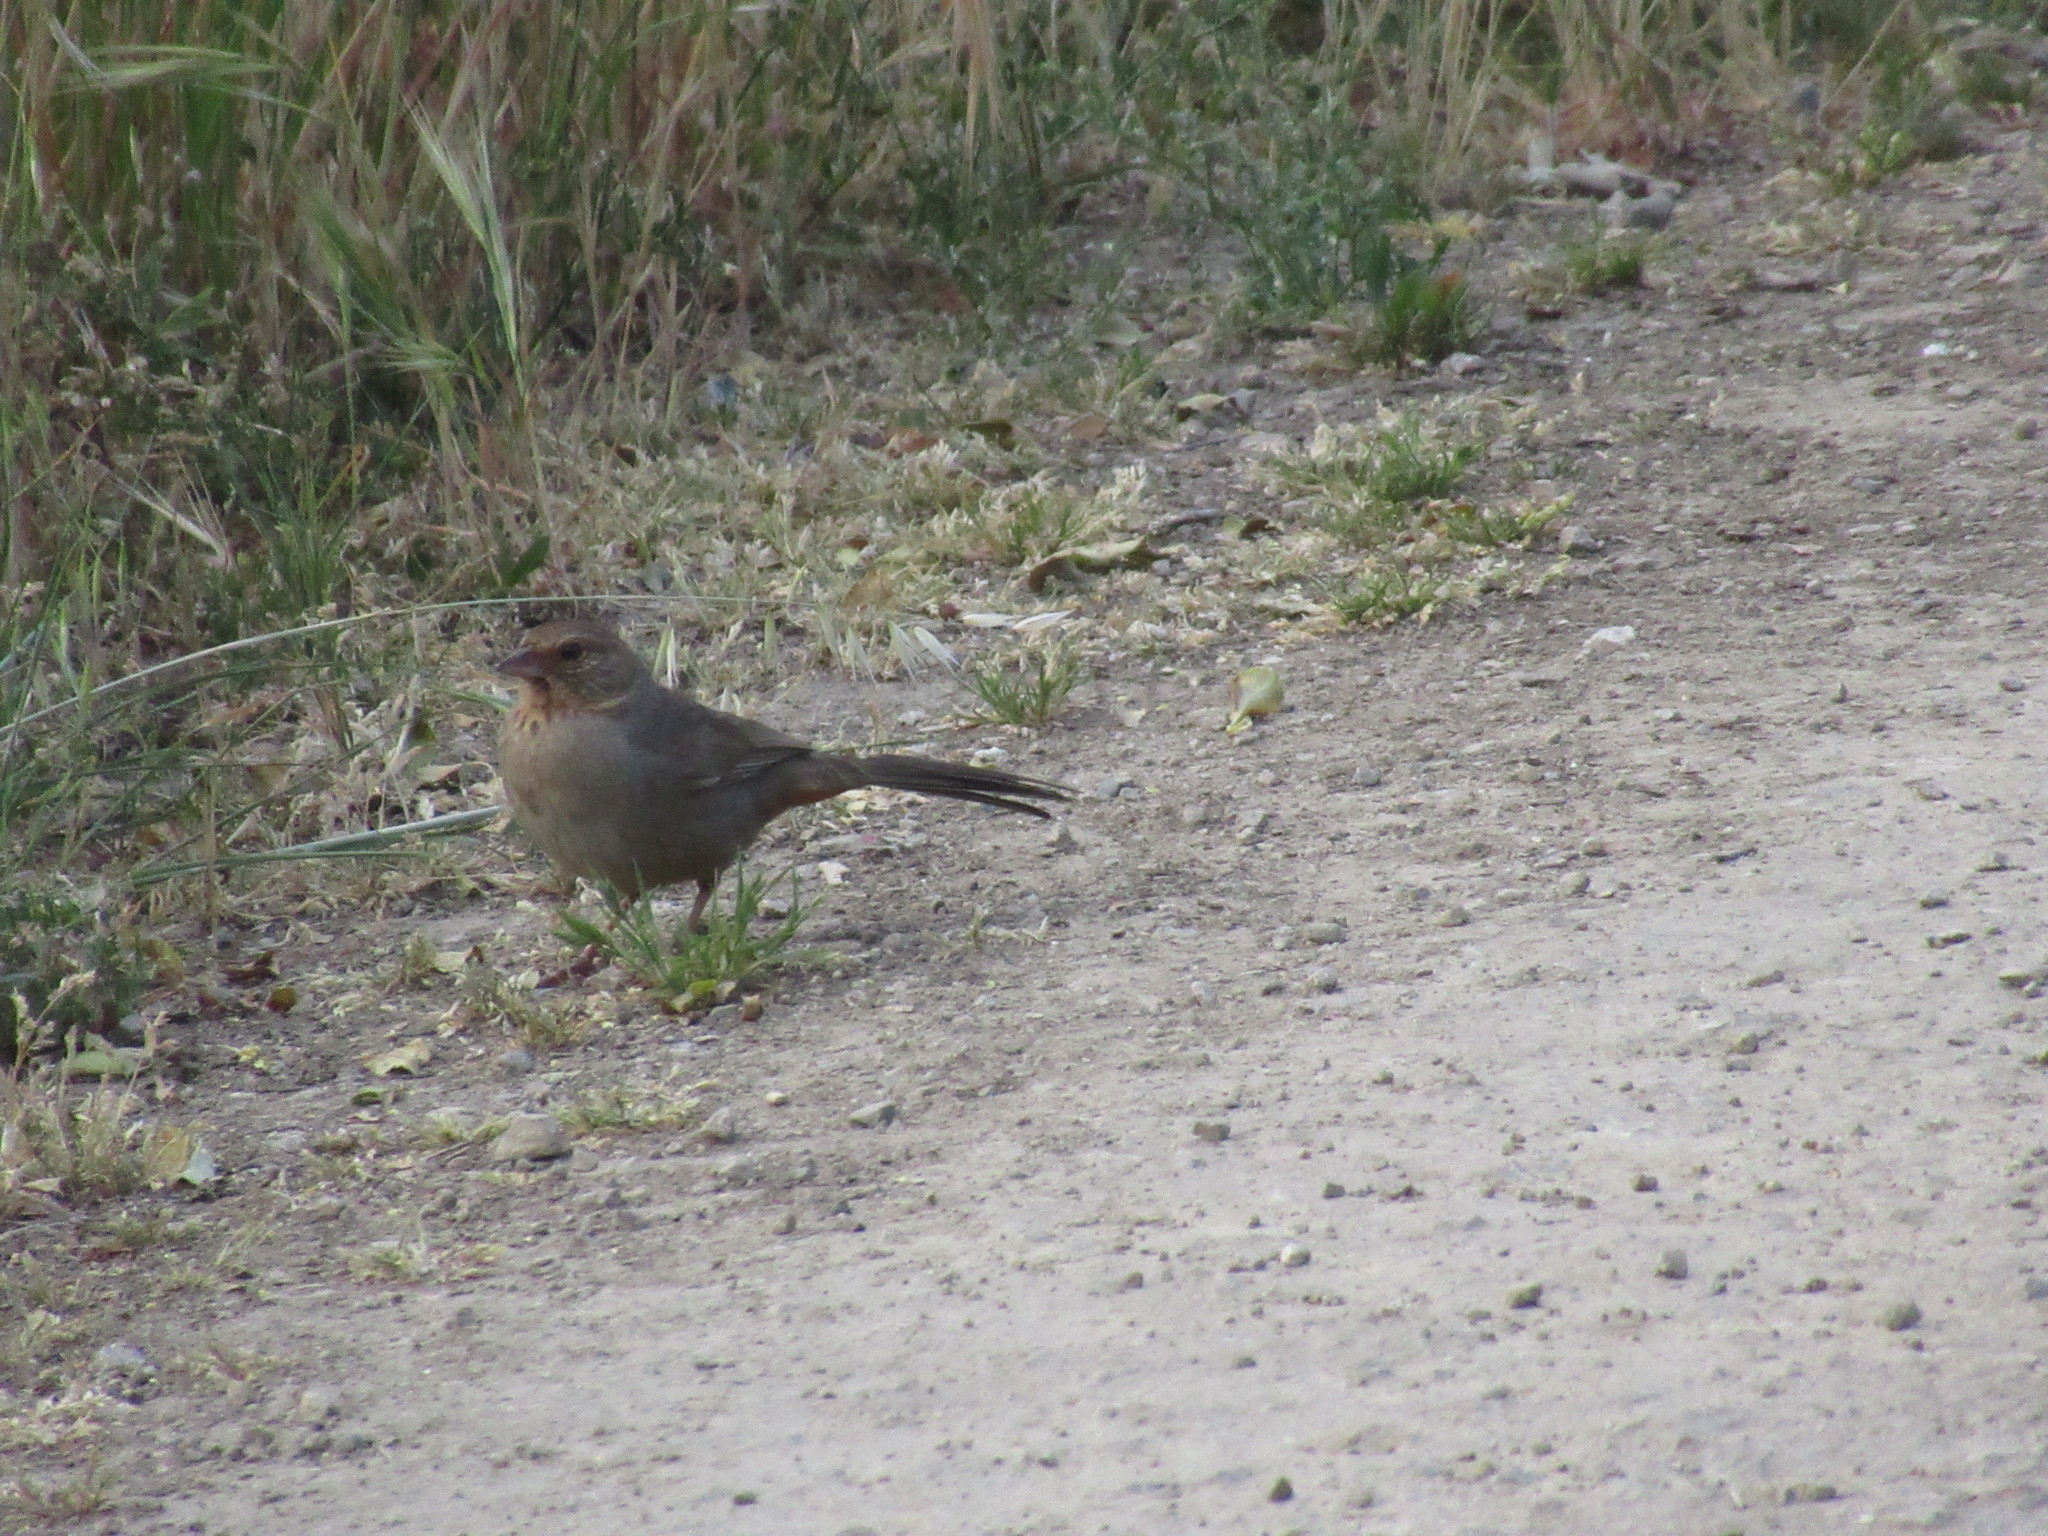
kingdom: Animalia
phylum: Chordata
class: Aves
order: Passeriformes
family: Passerellidae
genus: Melozone
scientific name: Melozone crissalis
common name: California towhee
